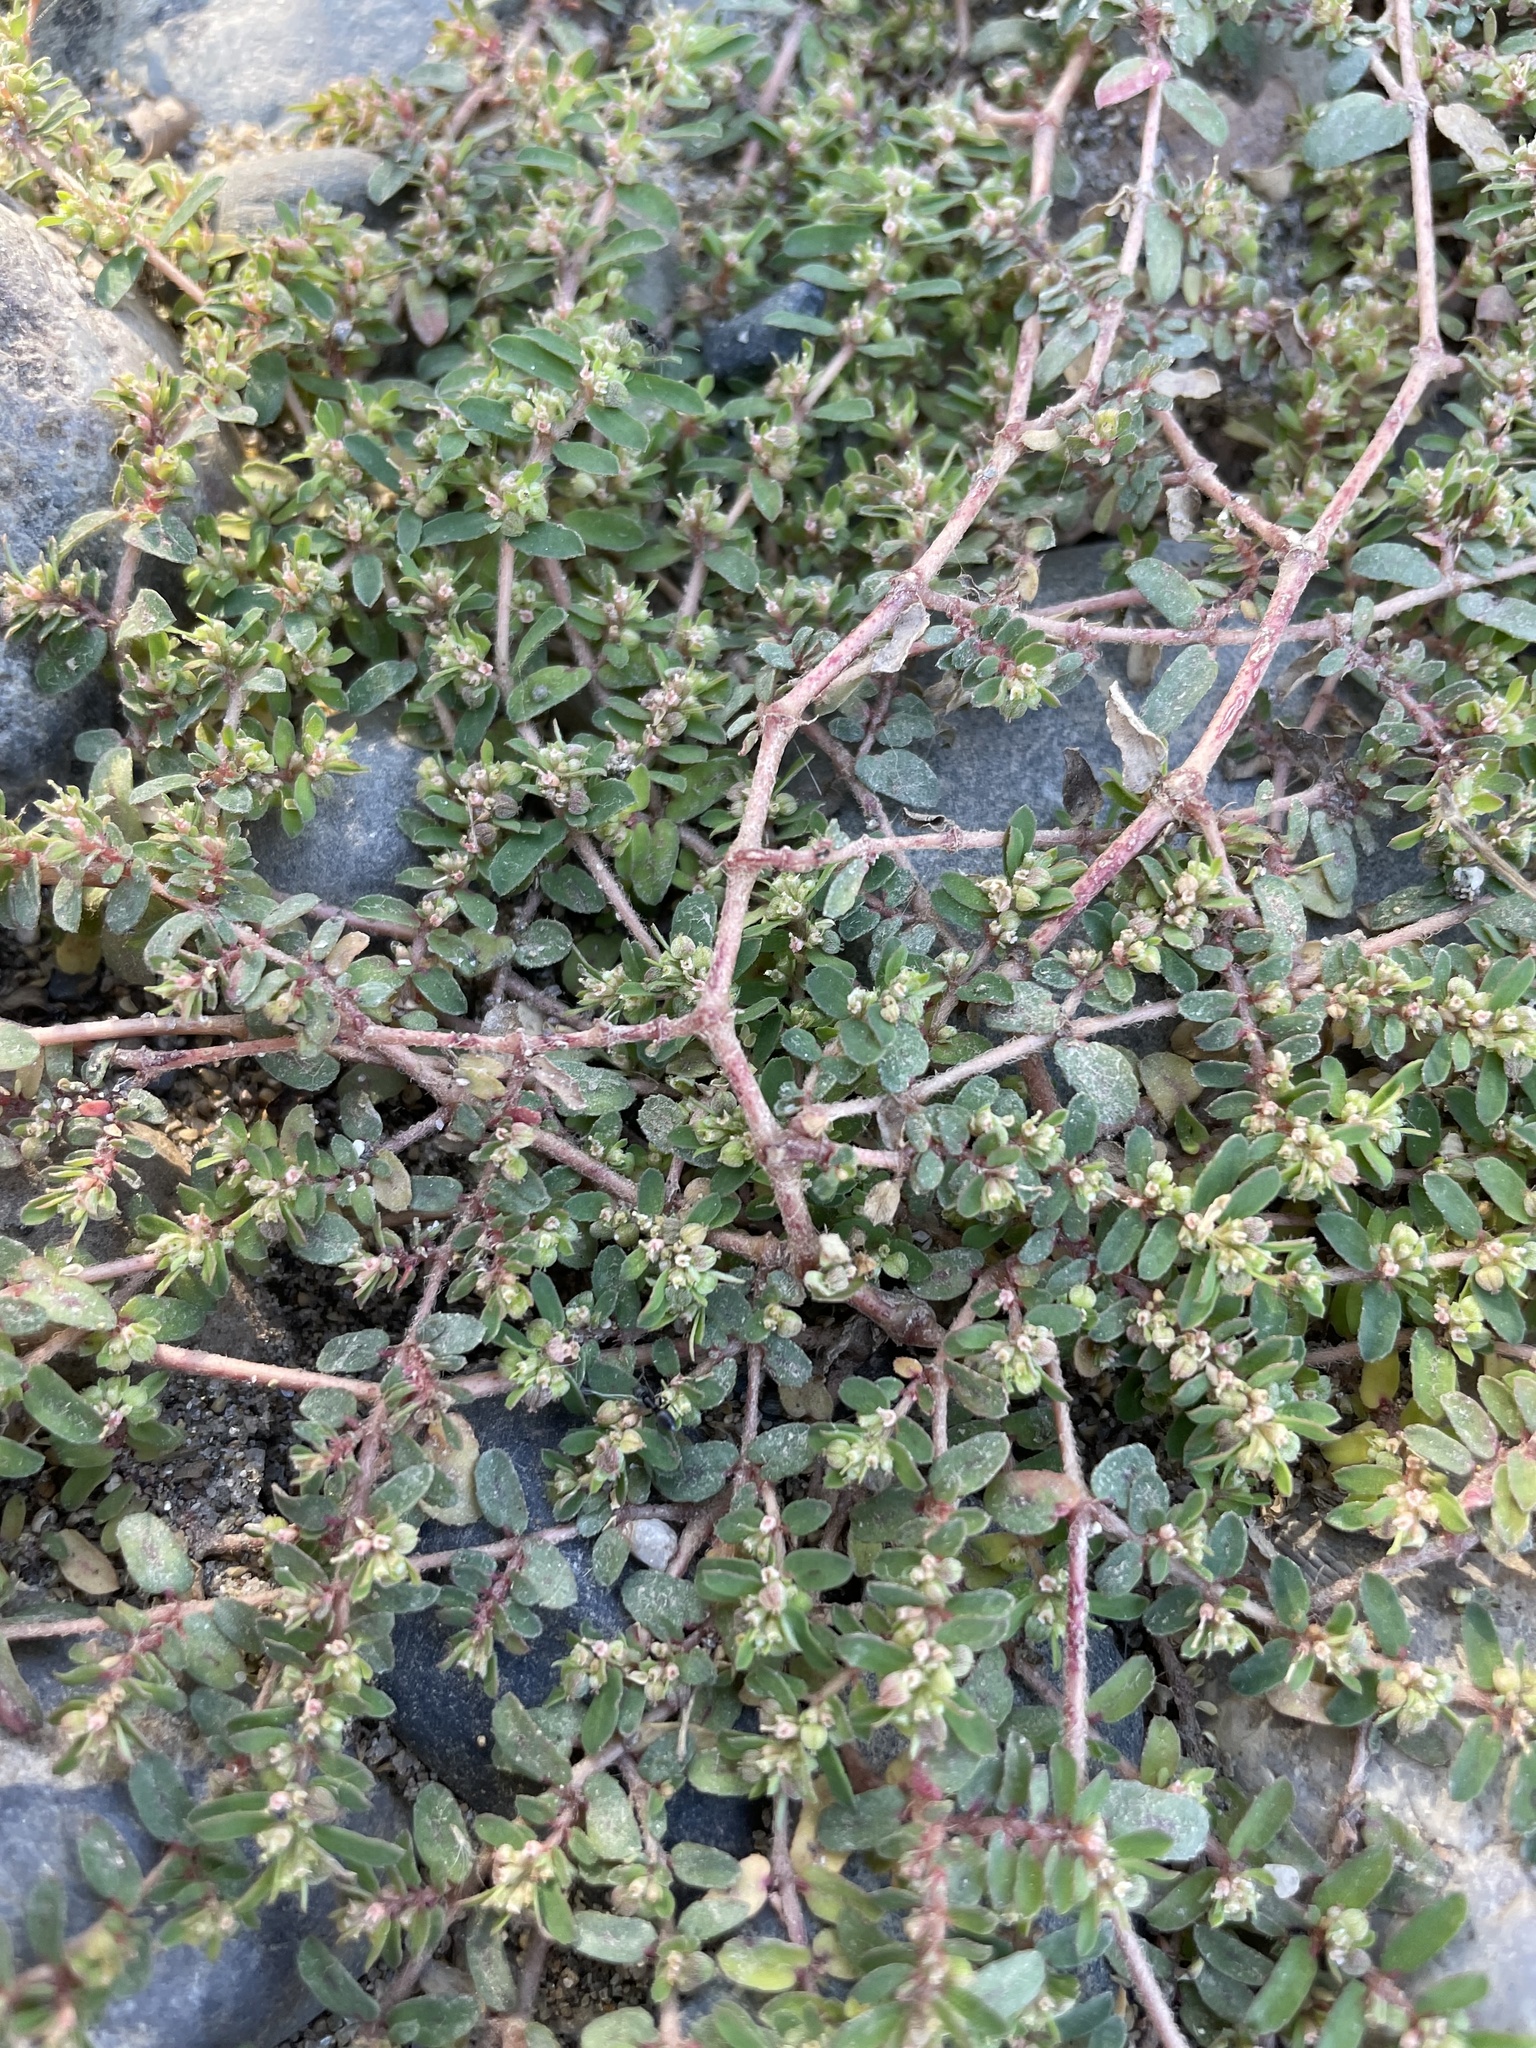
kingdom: Plantae
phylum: Tracheophyta
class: Magnoliopsida
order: Malpighiales
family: Euphorbiaceae
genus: Euphorbia
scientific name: Euphorbia maculata
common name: Spotted spurge
